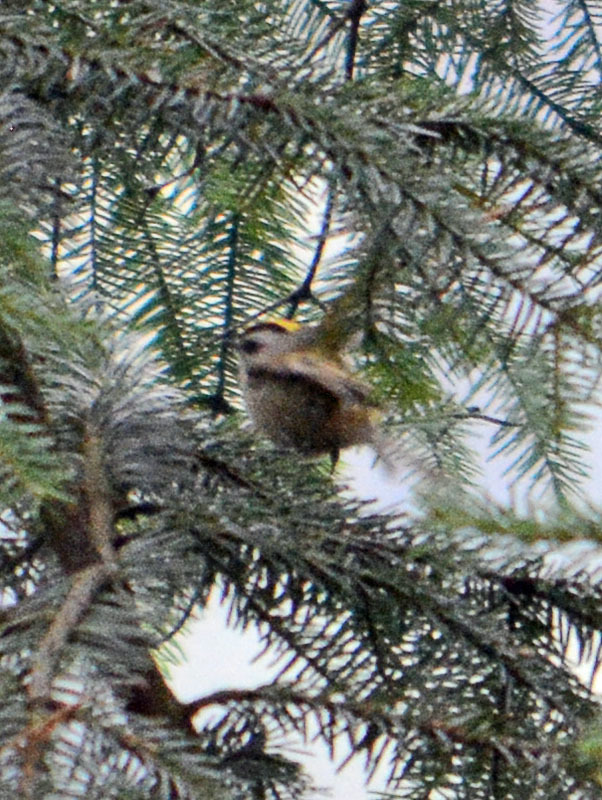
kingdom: Animalia
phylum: Chordata
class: Aves
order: Passeriformes
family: Regulidae
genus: Regulus
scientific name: Regulus satrapa
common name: Golden-crowned kinglet
